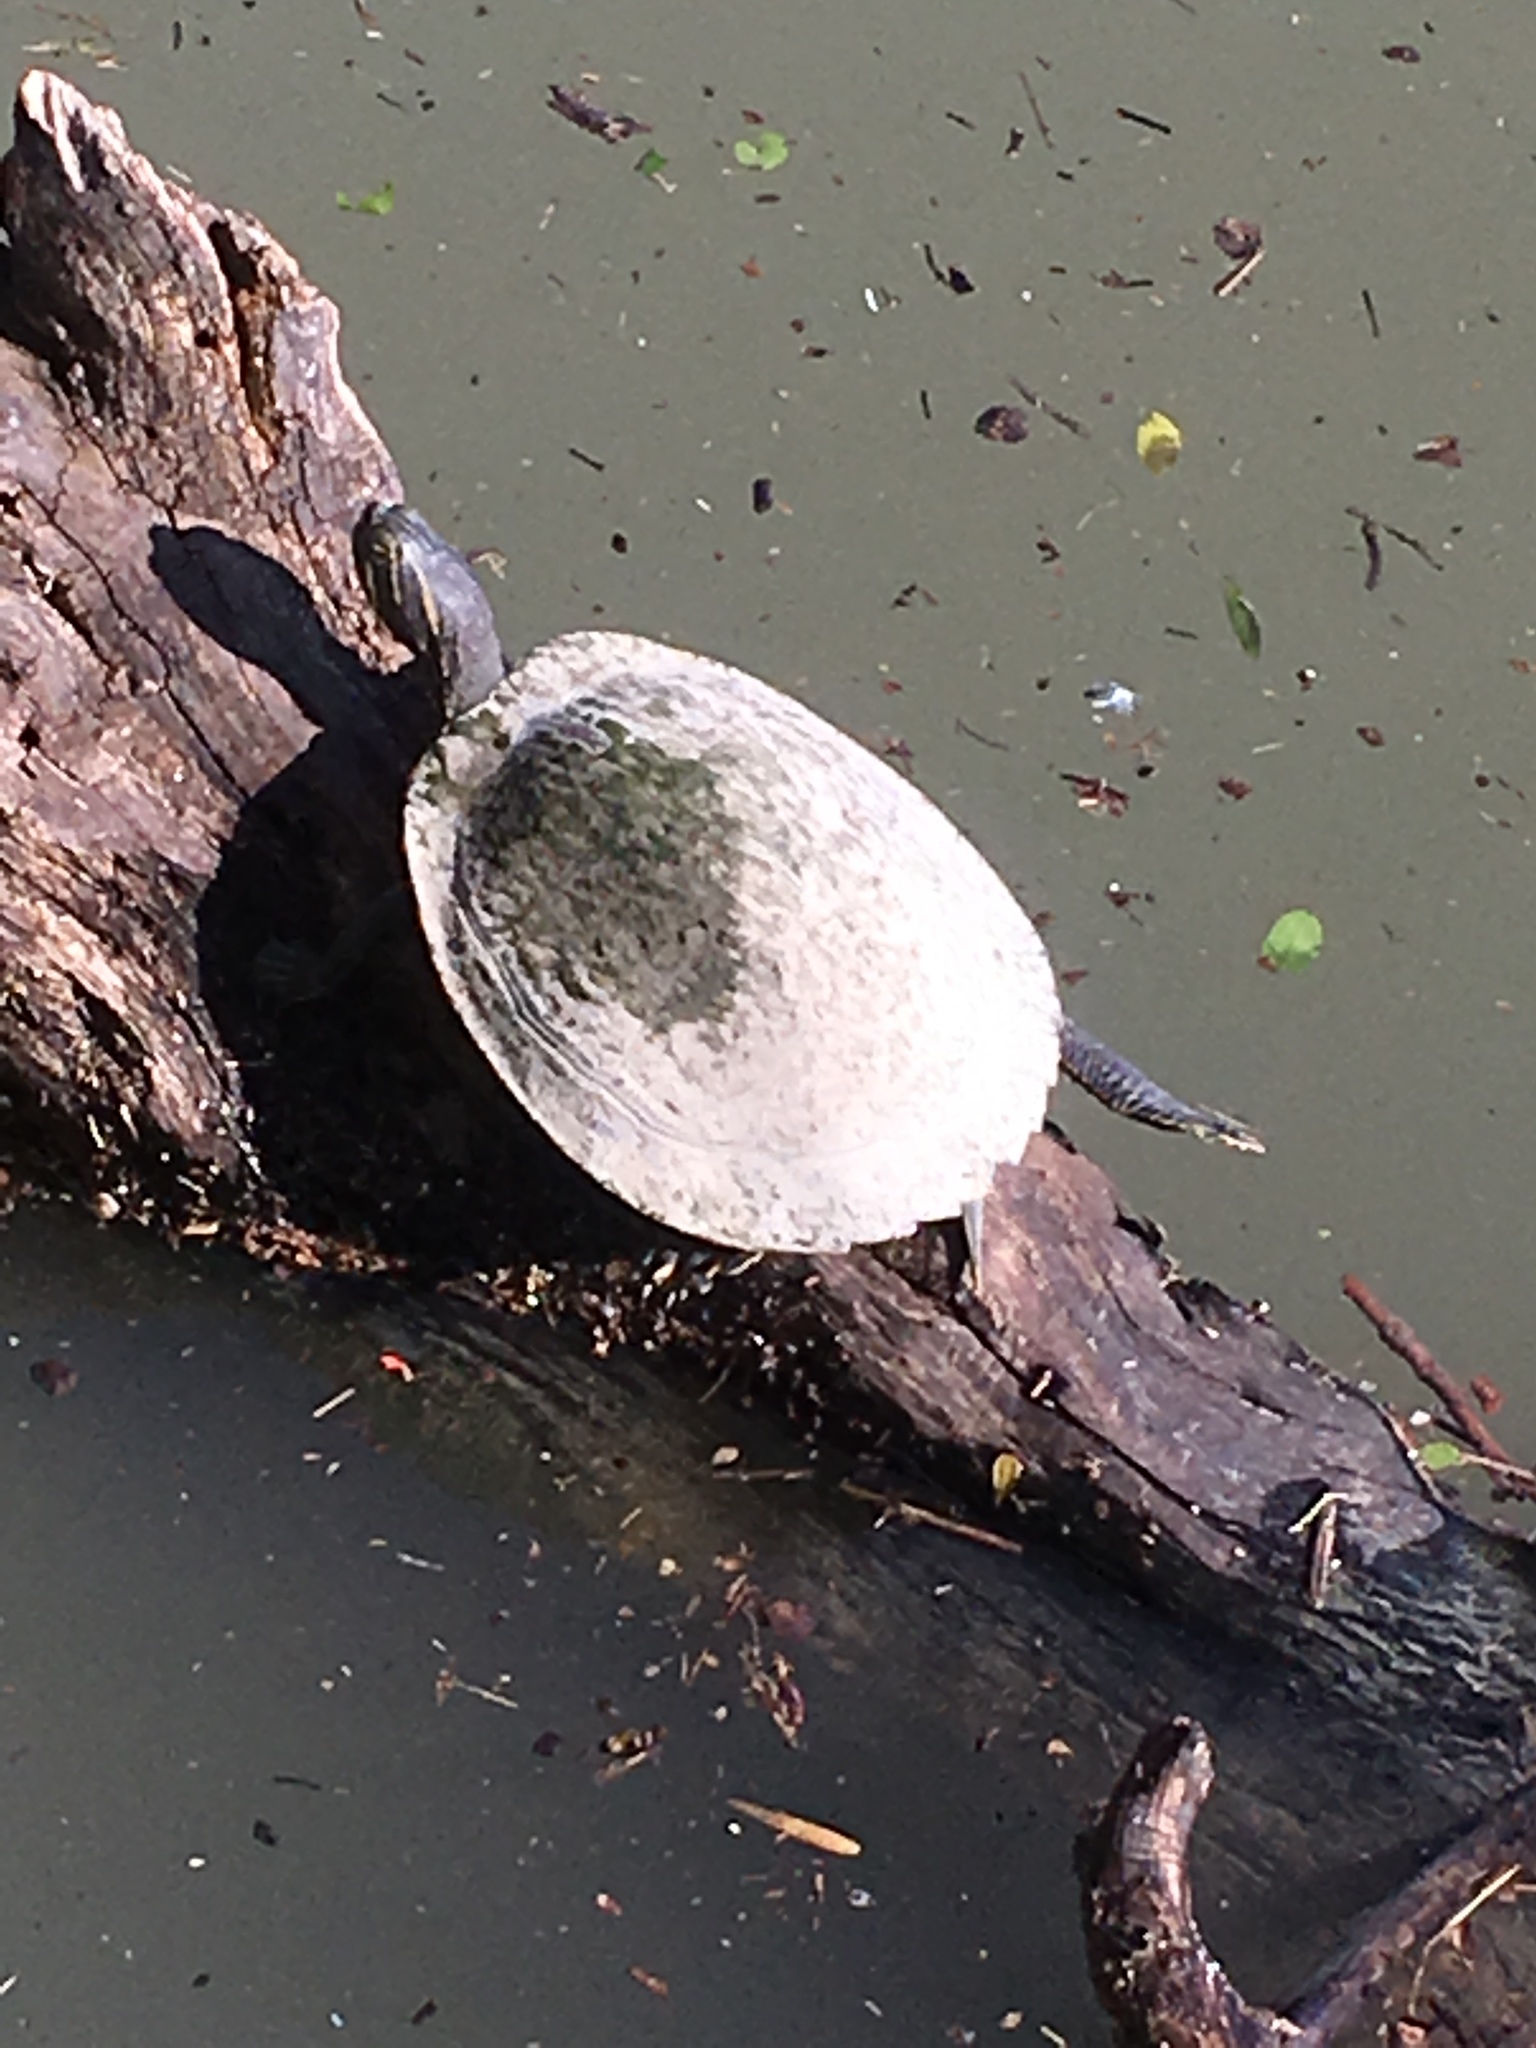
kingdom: Animalia
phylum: Chordata
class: Testudines
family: Emydidae
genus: Pseudemys
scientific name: Pseudemys concinna
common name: Eastern river cooter
